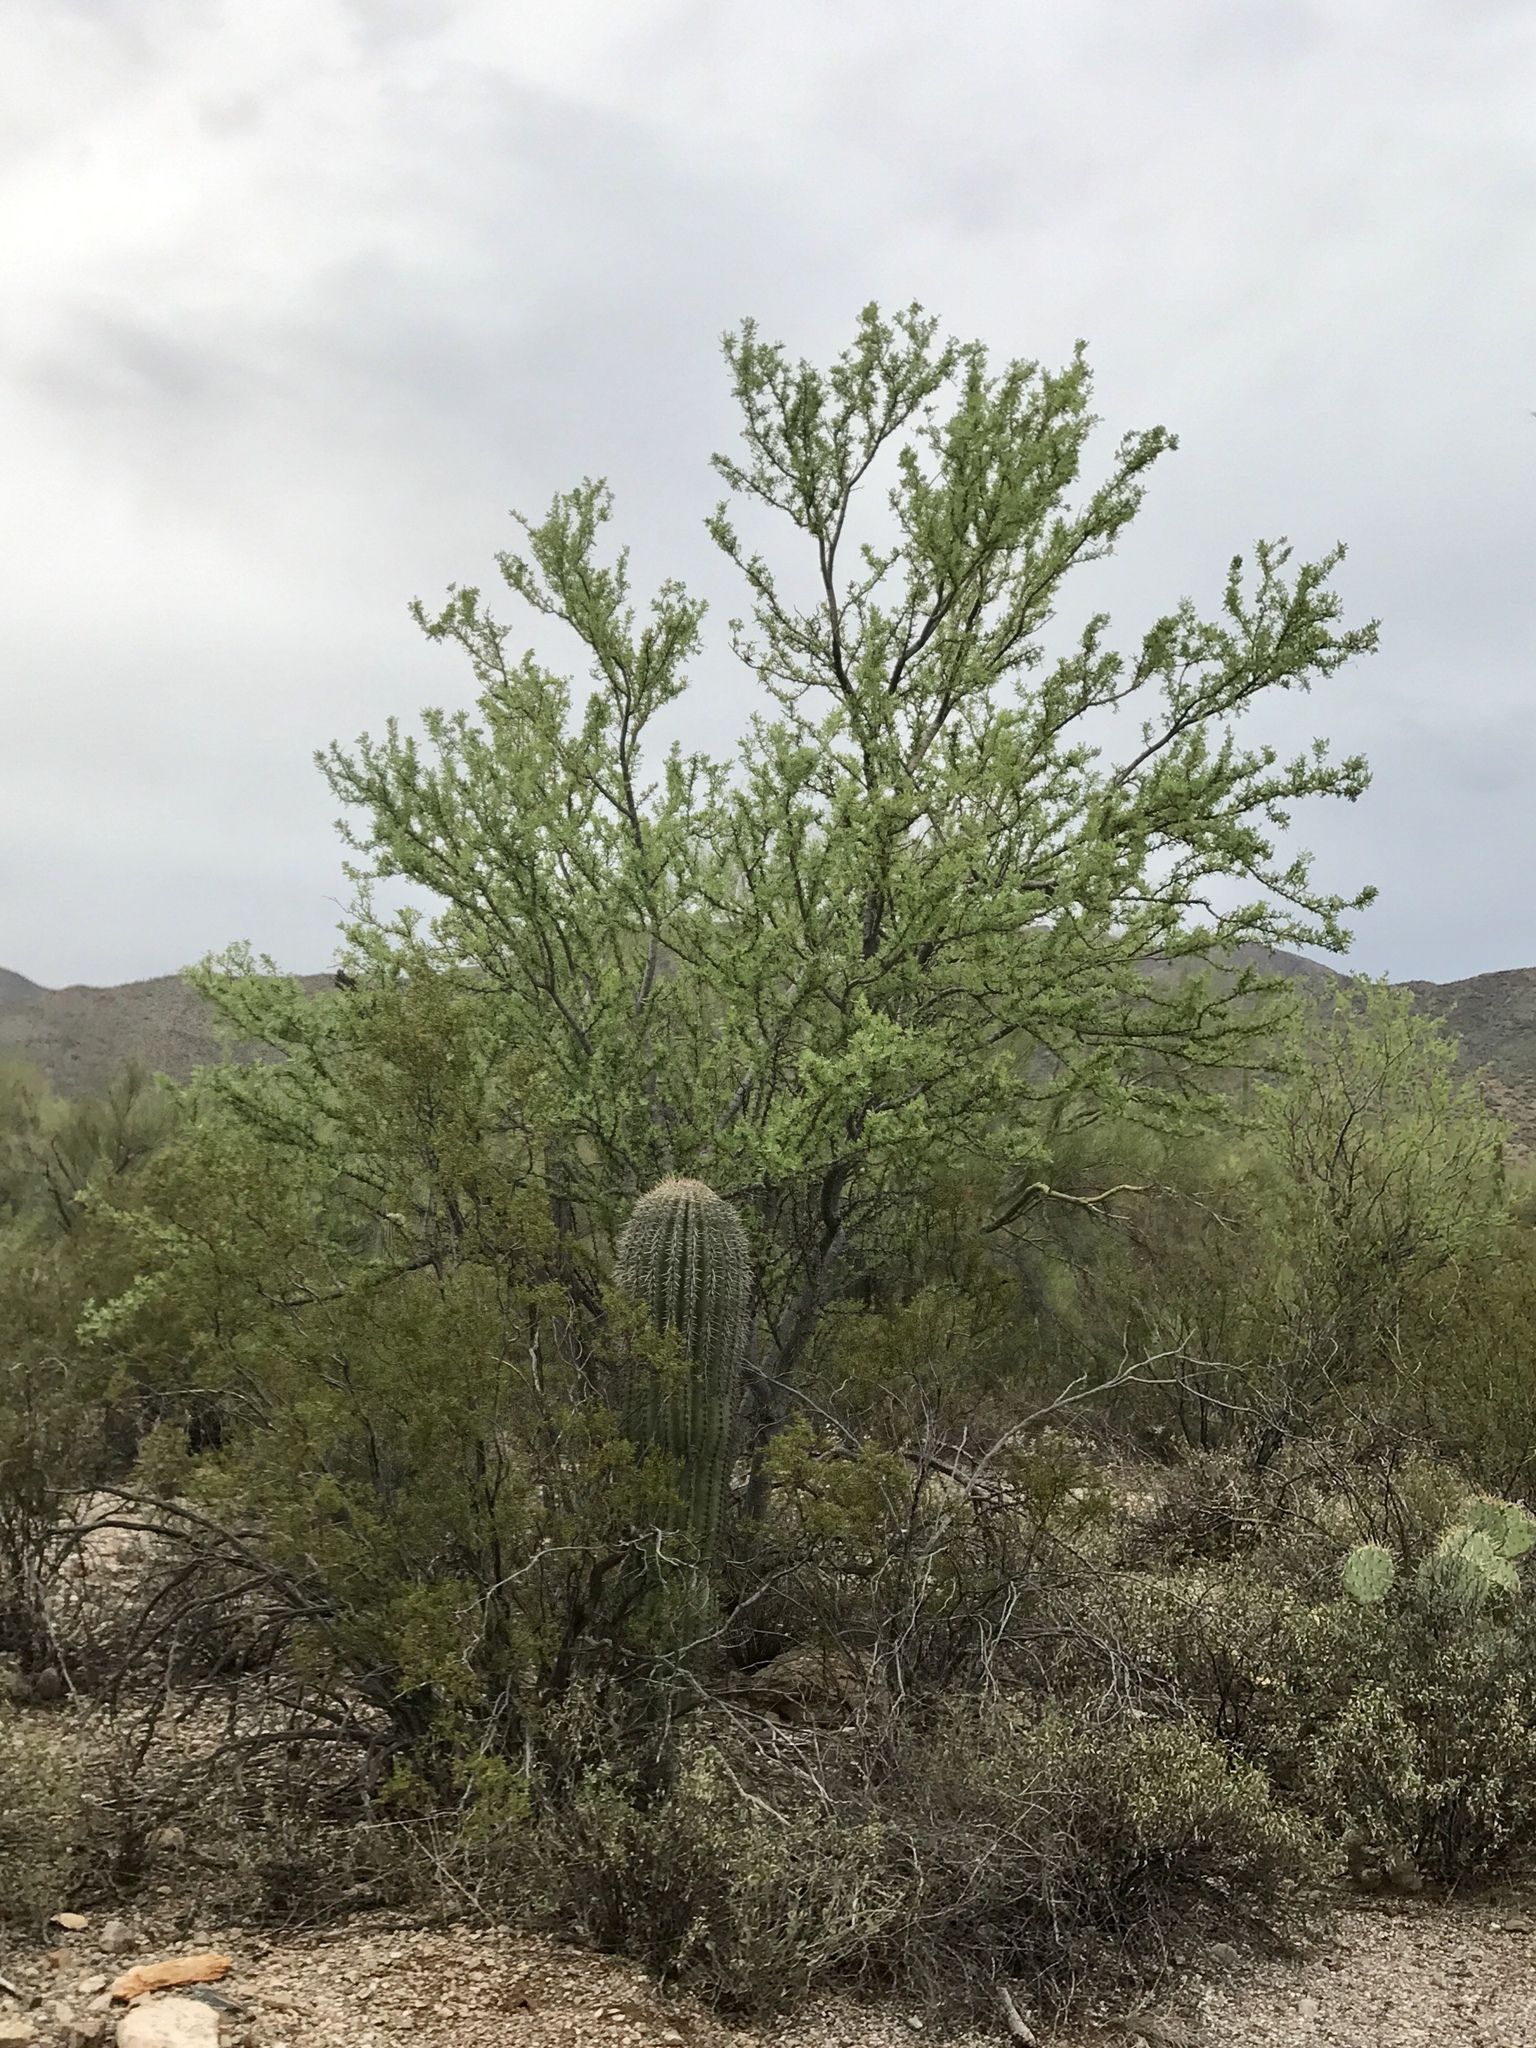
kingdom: Plantae
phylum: Tracheophyta
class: Magnoliopsida
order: Fabales
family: Fabaceae
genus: Olneya
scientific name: Olneya tesota
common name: Desert ironwood
